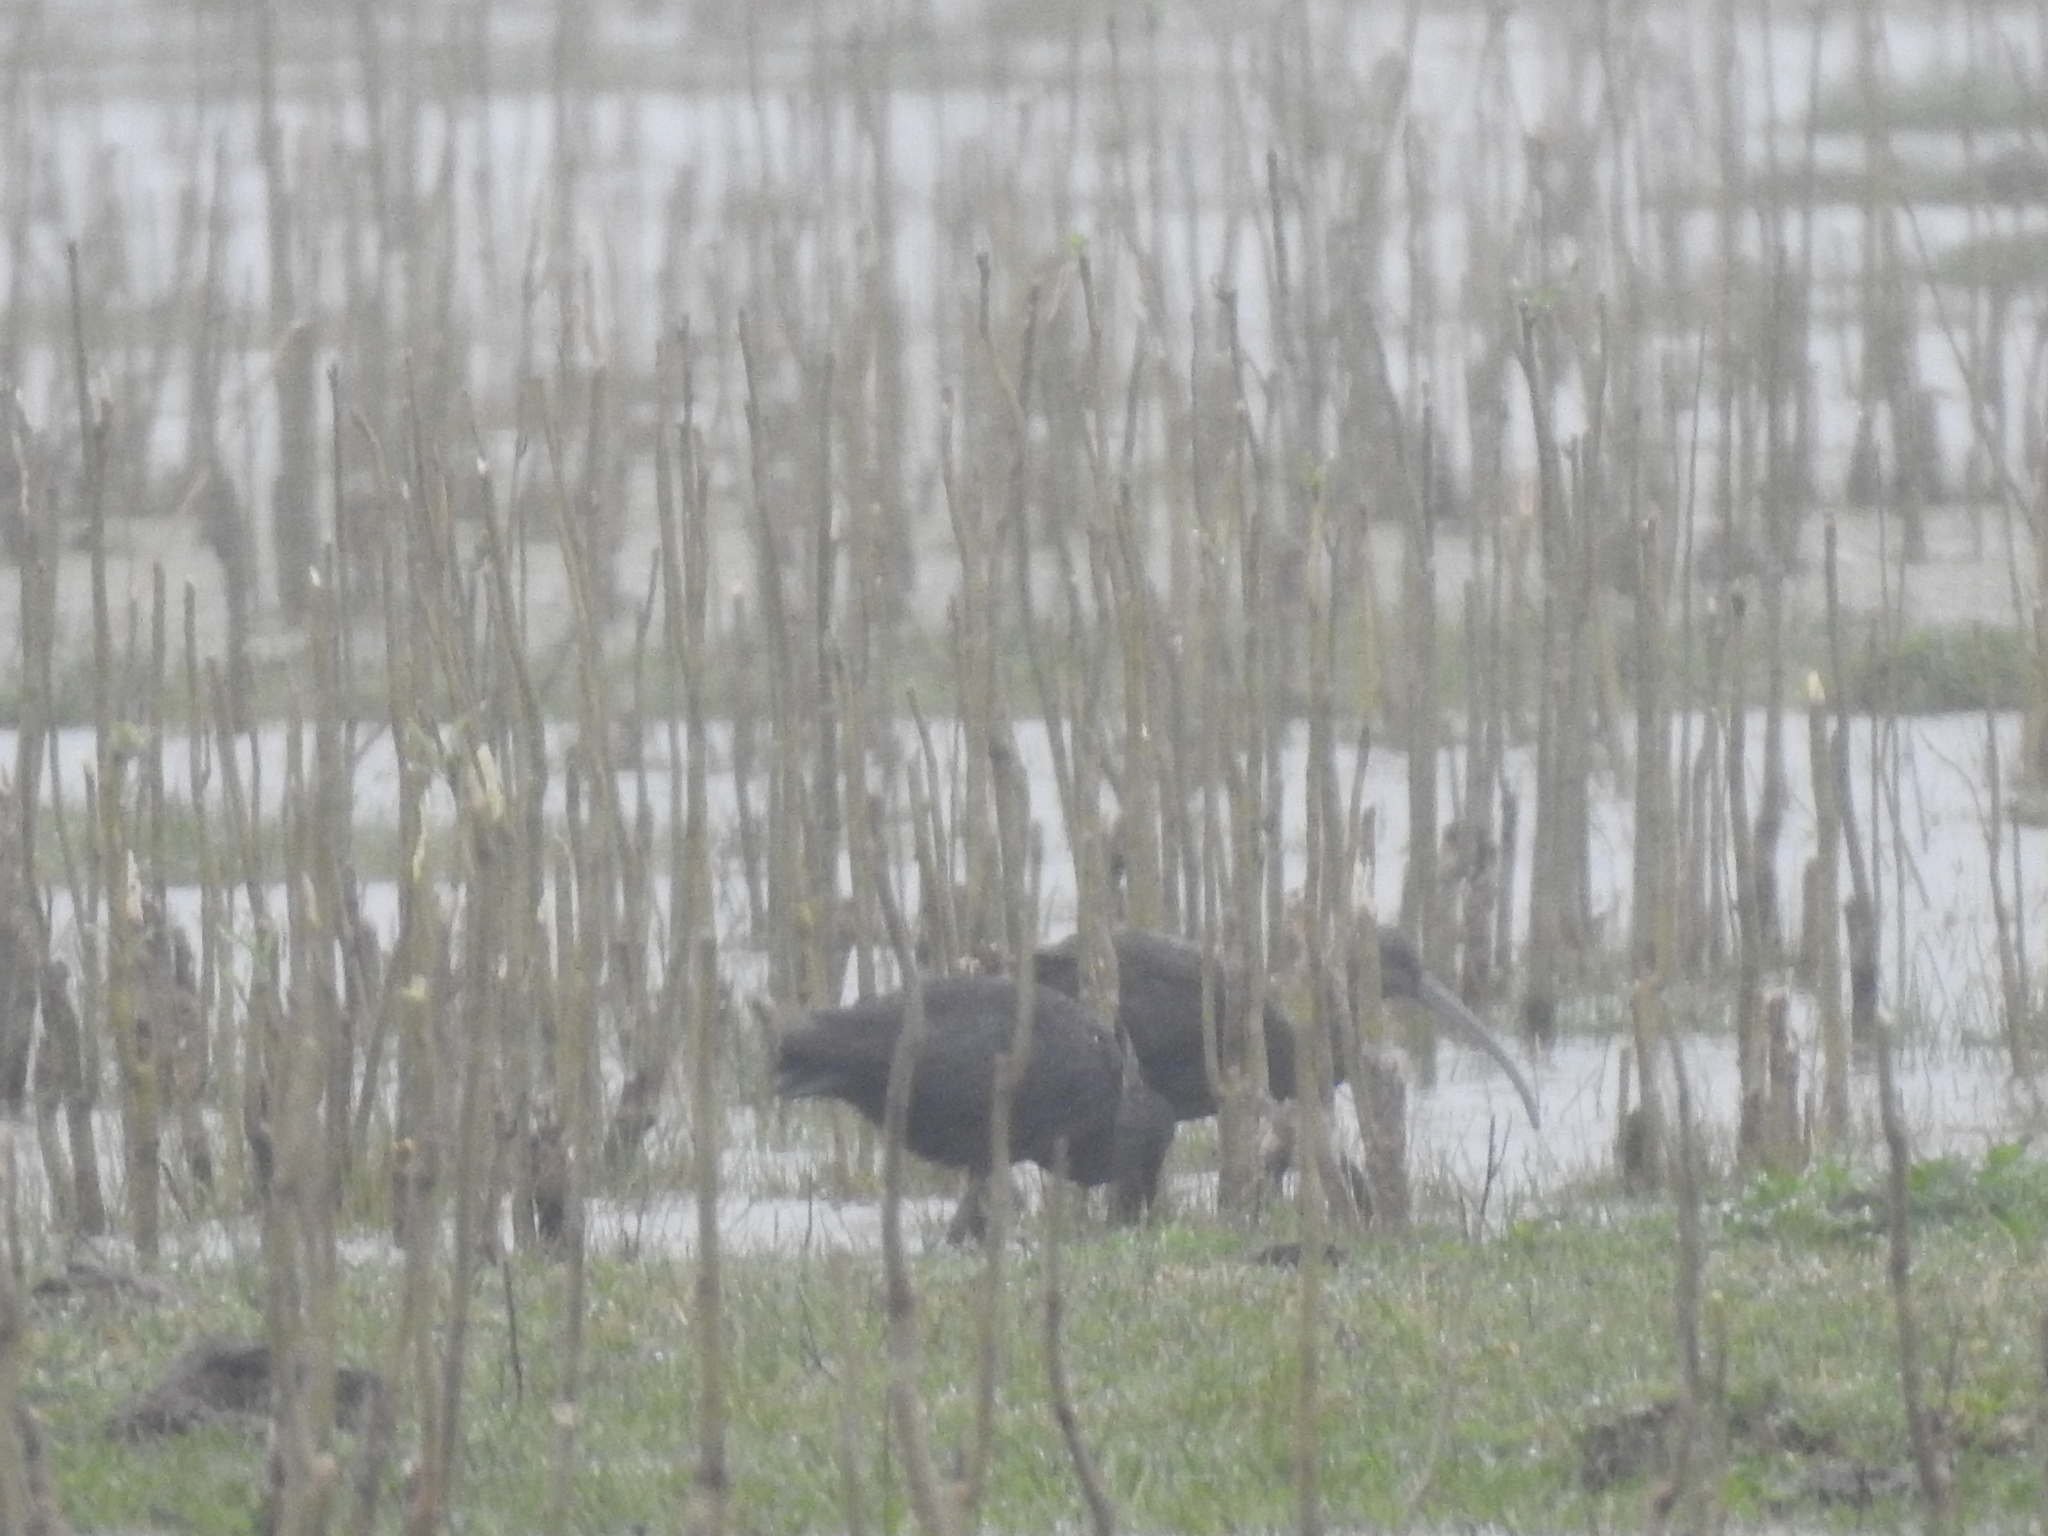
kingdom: Animalia
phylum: Chordata
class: Aves
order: Pelecaniformes
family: Threskiornithidae
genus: Plegadis
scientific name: Plegadis chihi
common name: White-faced ibis
